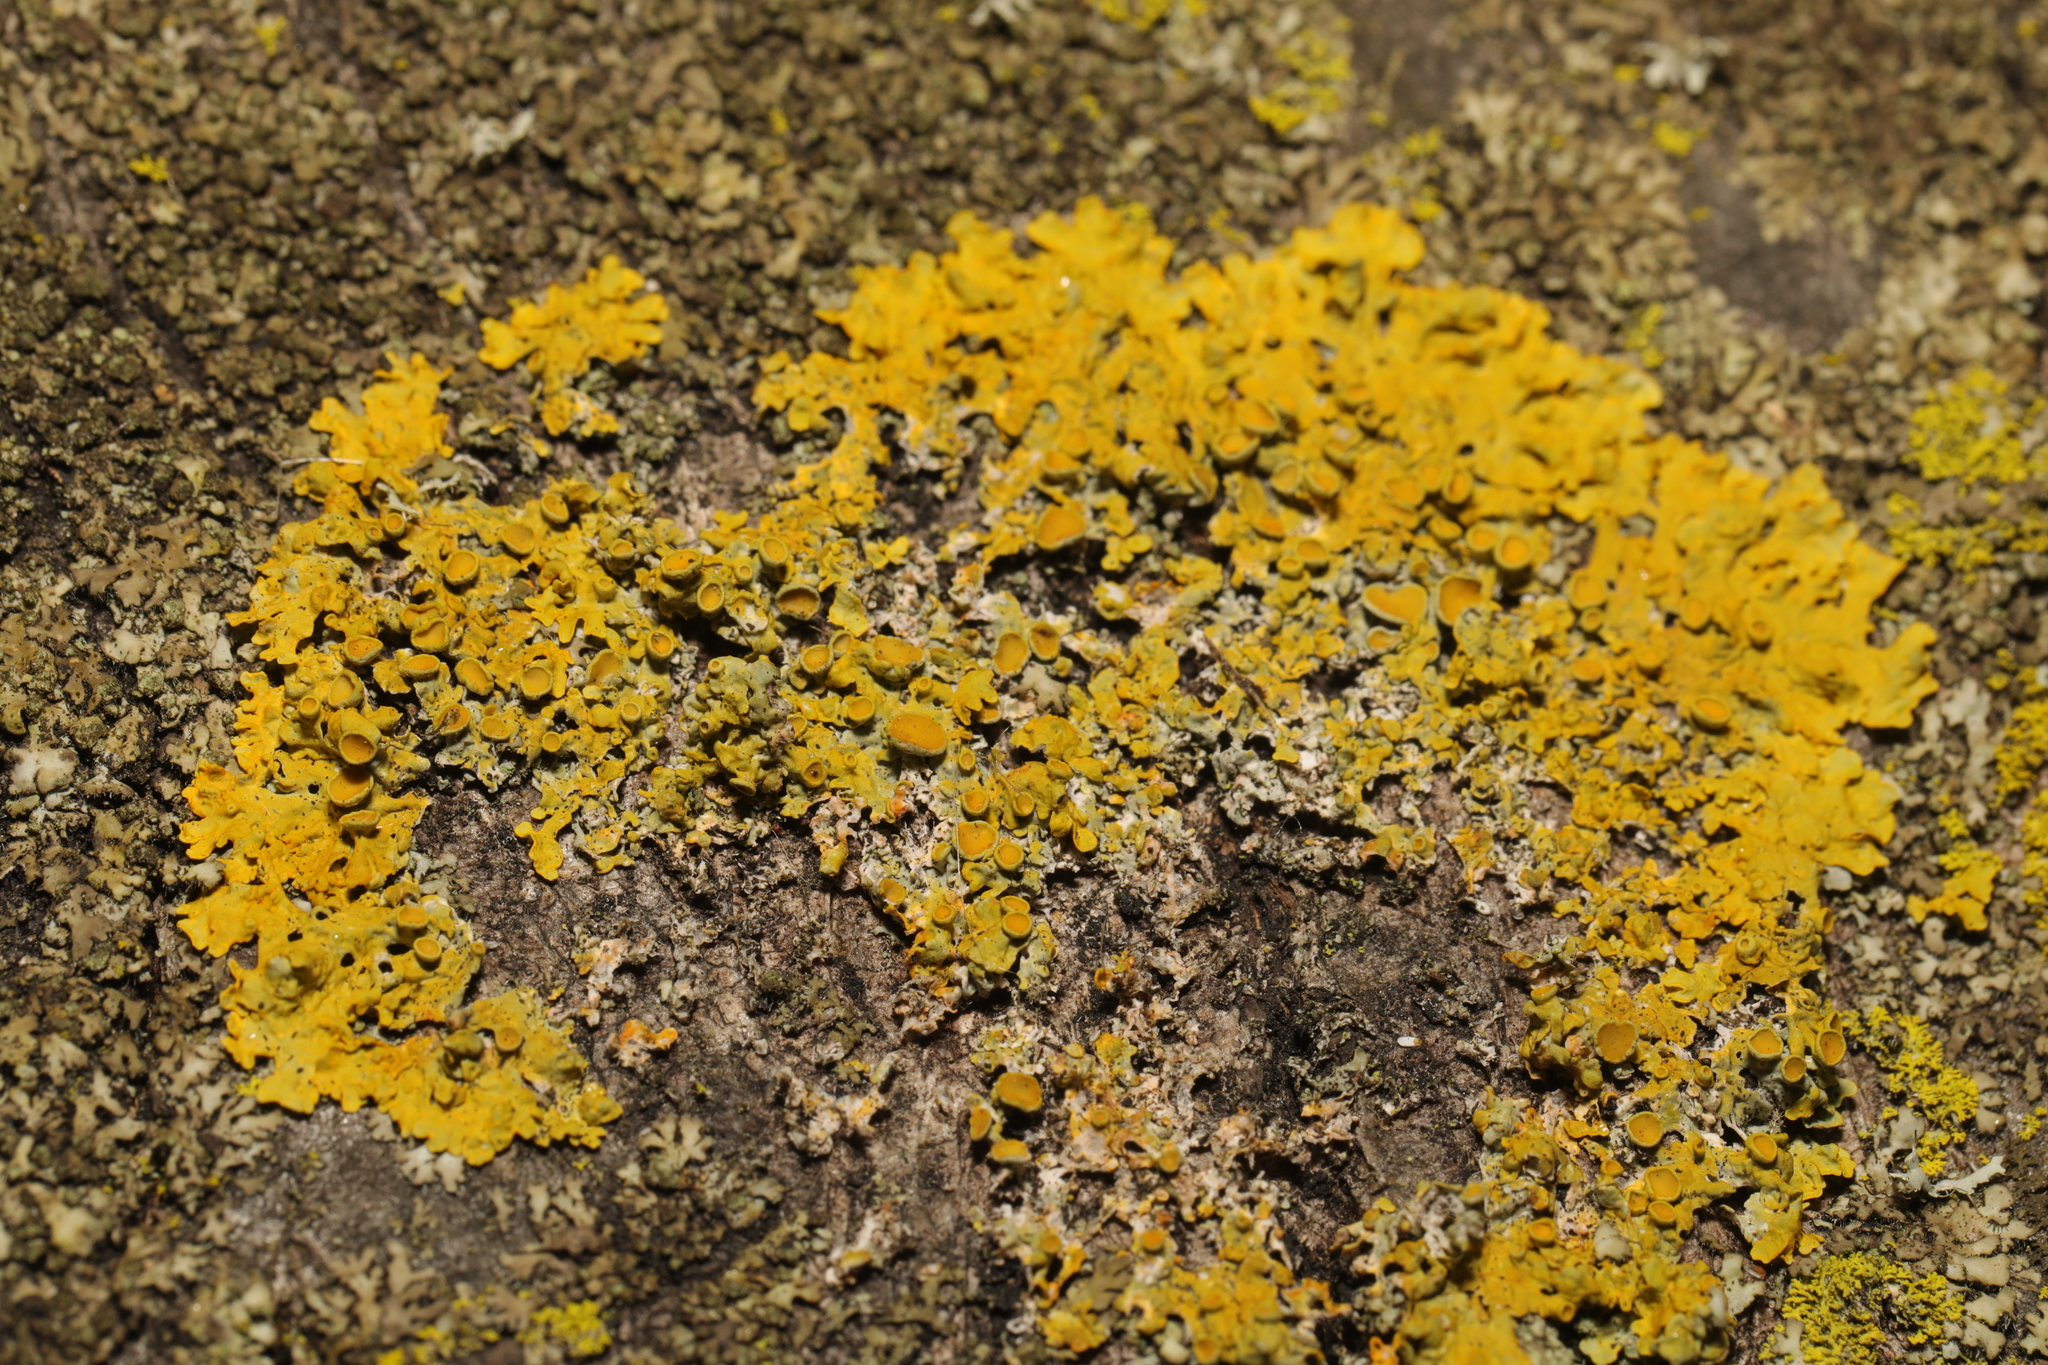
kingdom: Fungi
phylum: Ascomycota
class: Lecanoromycetes
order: Teloschistales
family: Teloschistaceae
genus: Xanthoria
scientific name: Xanthoria parietina
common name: Common orange lichen
